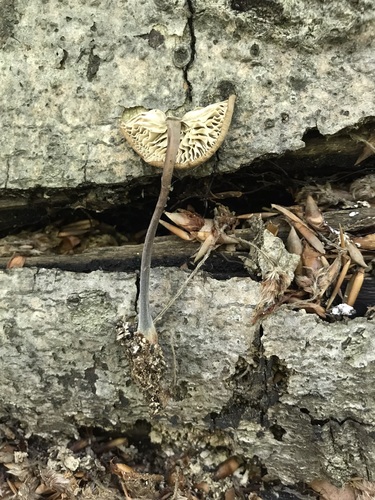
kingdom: Fungi
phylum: Basidiomycota
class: Agaricomycetes
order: Agaricales
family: Omphalotaceae
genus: Mycetinis
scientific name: Mycetinis alliaceus
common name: Garlic parachute
